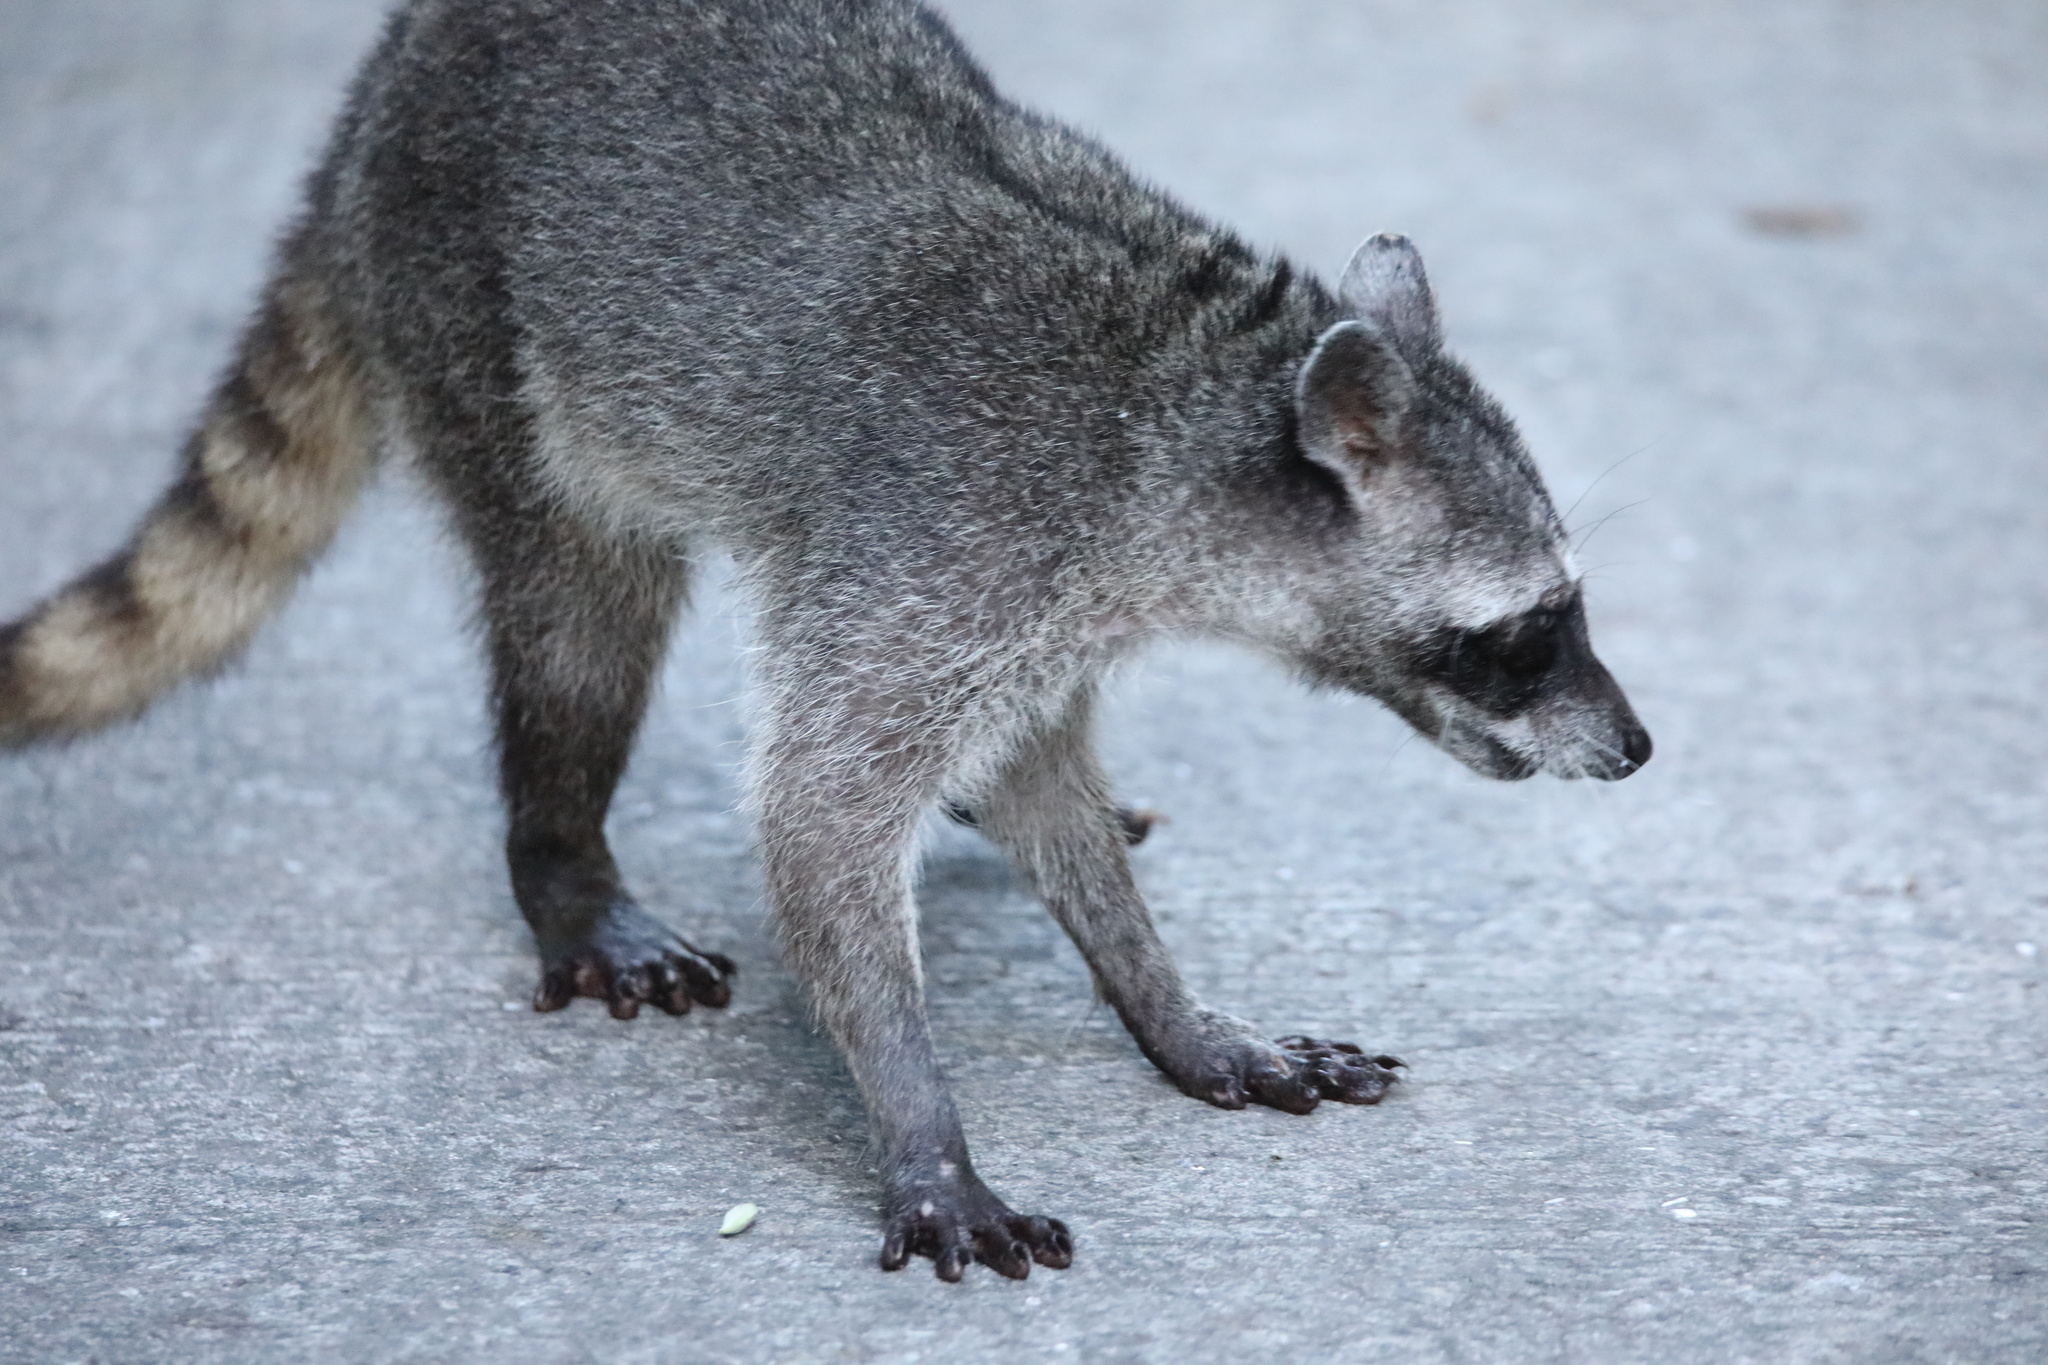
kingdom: Animalia
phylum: Chordata
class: Mammalia
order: Carnivora
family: Procyonidae
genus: Procyon
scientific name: Procyon lotor
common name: Raccoon
